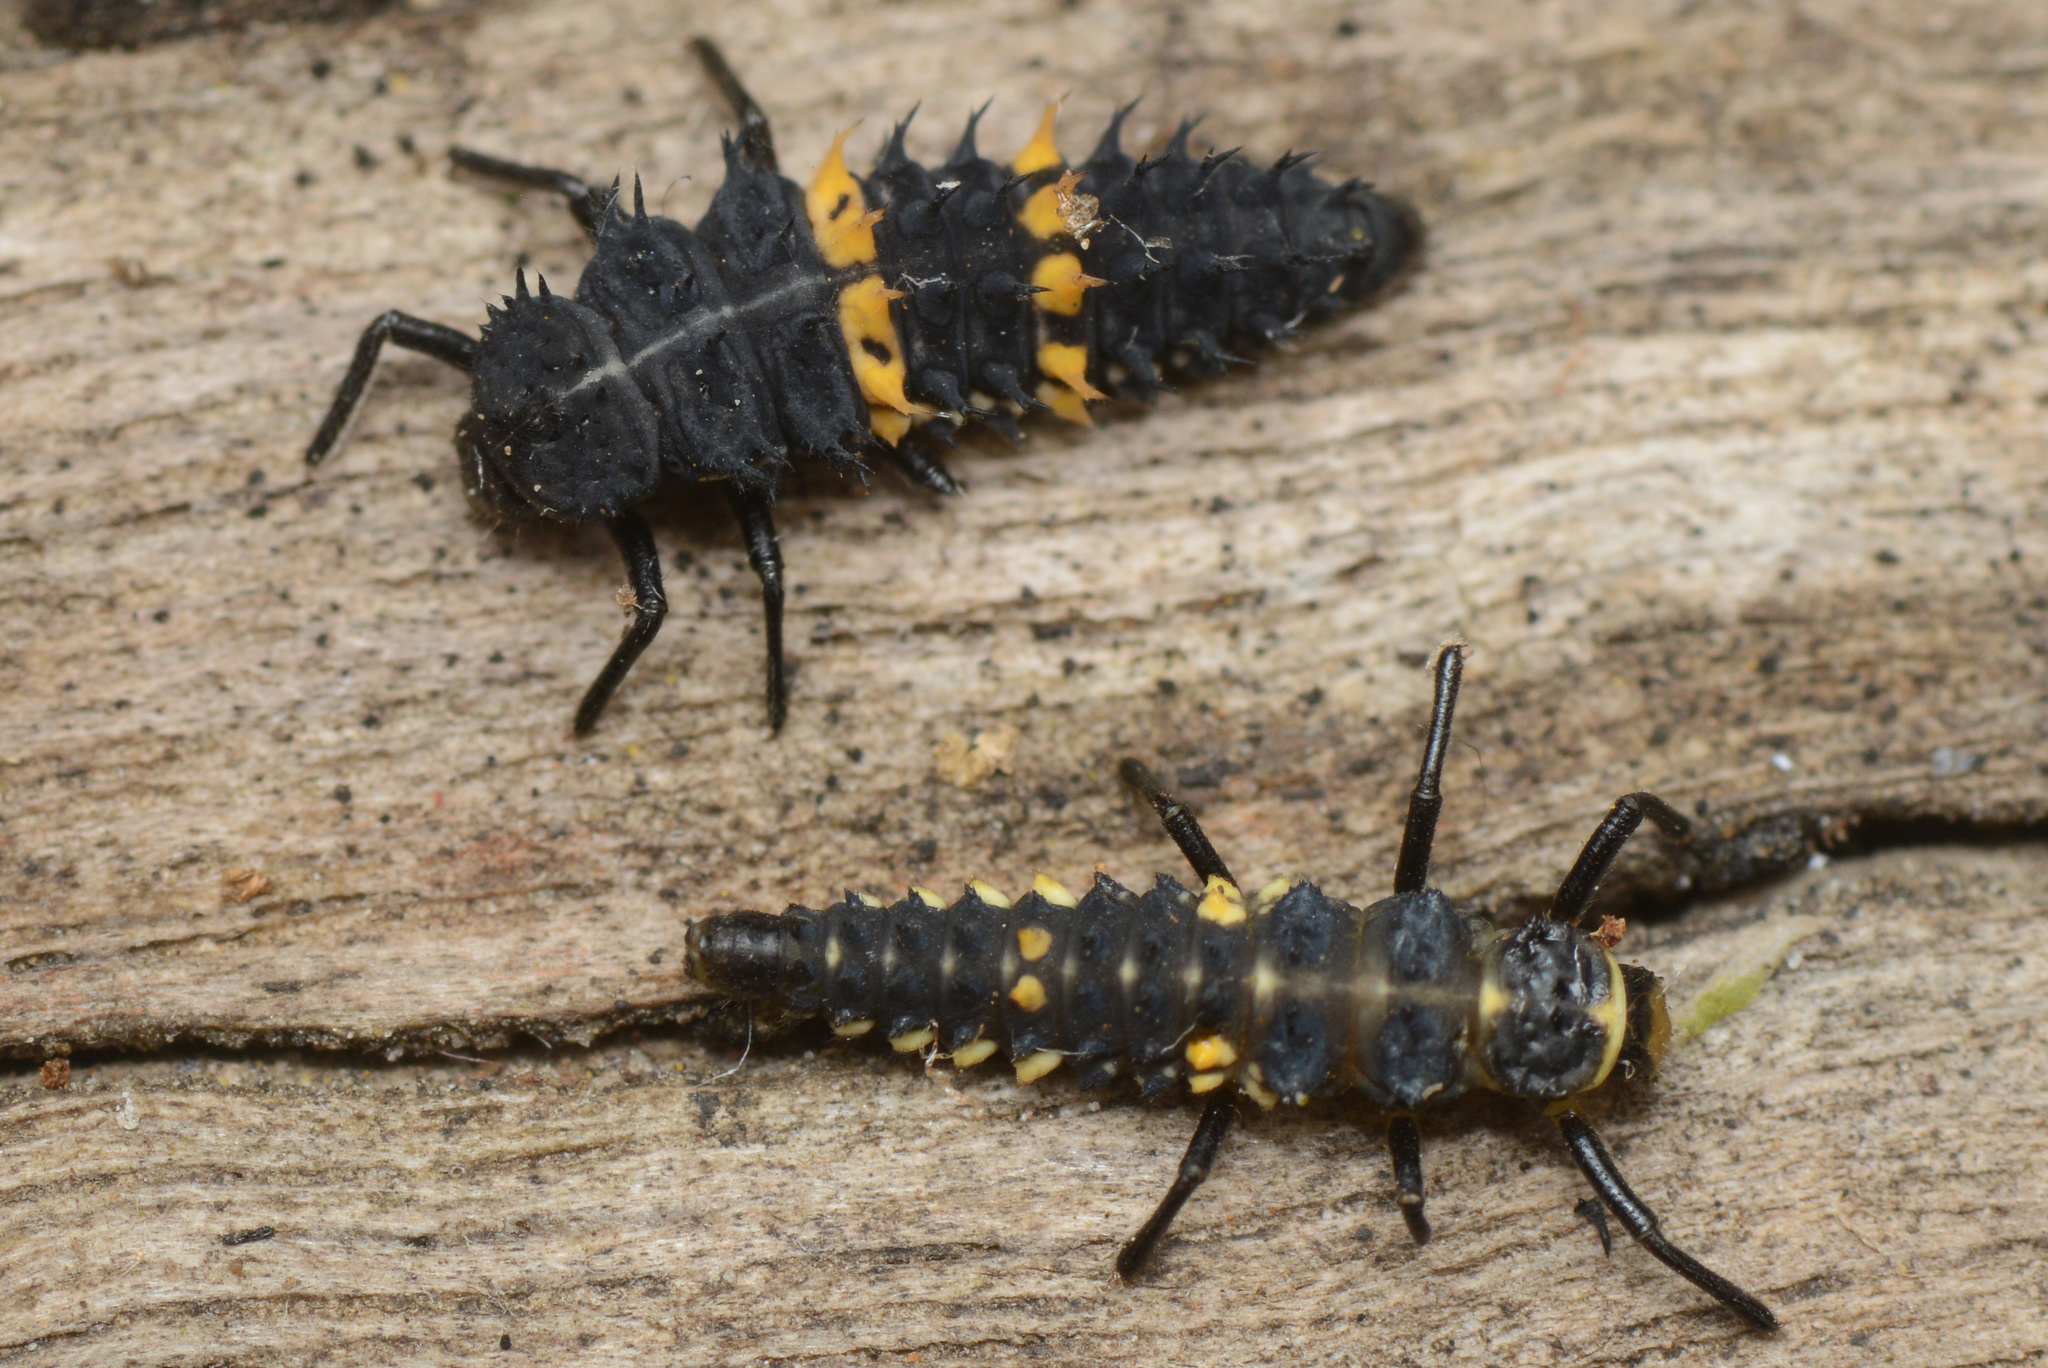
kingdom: Animalia
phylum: Arthropoda
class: Insecta
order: Coleoptera
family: Coccinellidae
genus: Cleobora
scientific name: Cleobora
